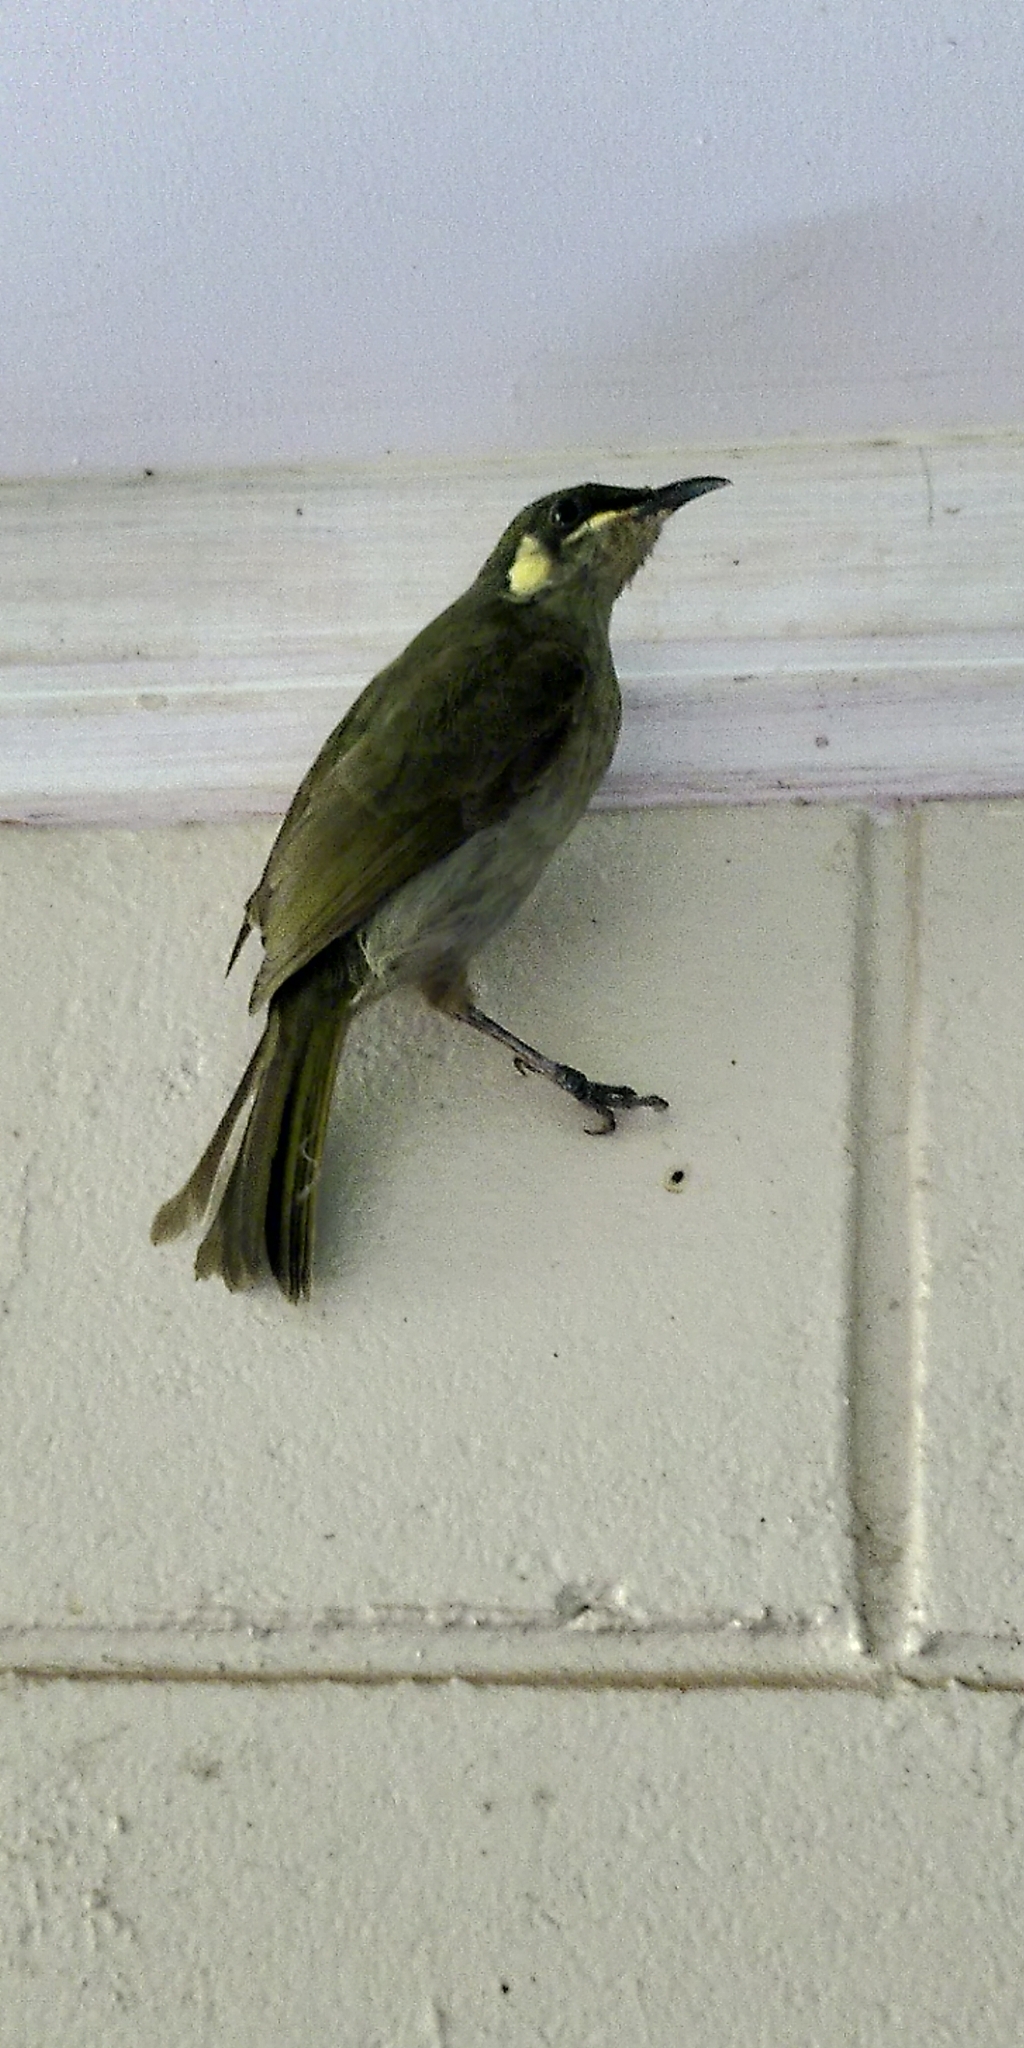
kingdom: Animalia
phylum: Chordata
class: Aves
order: Passeriformes
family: Meliphagidae
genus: Meliphaga
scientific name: Meliphaga notata
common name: Yellow-spotted honeyeater
